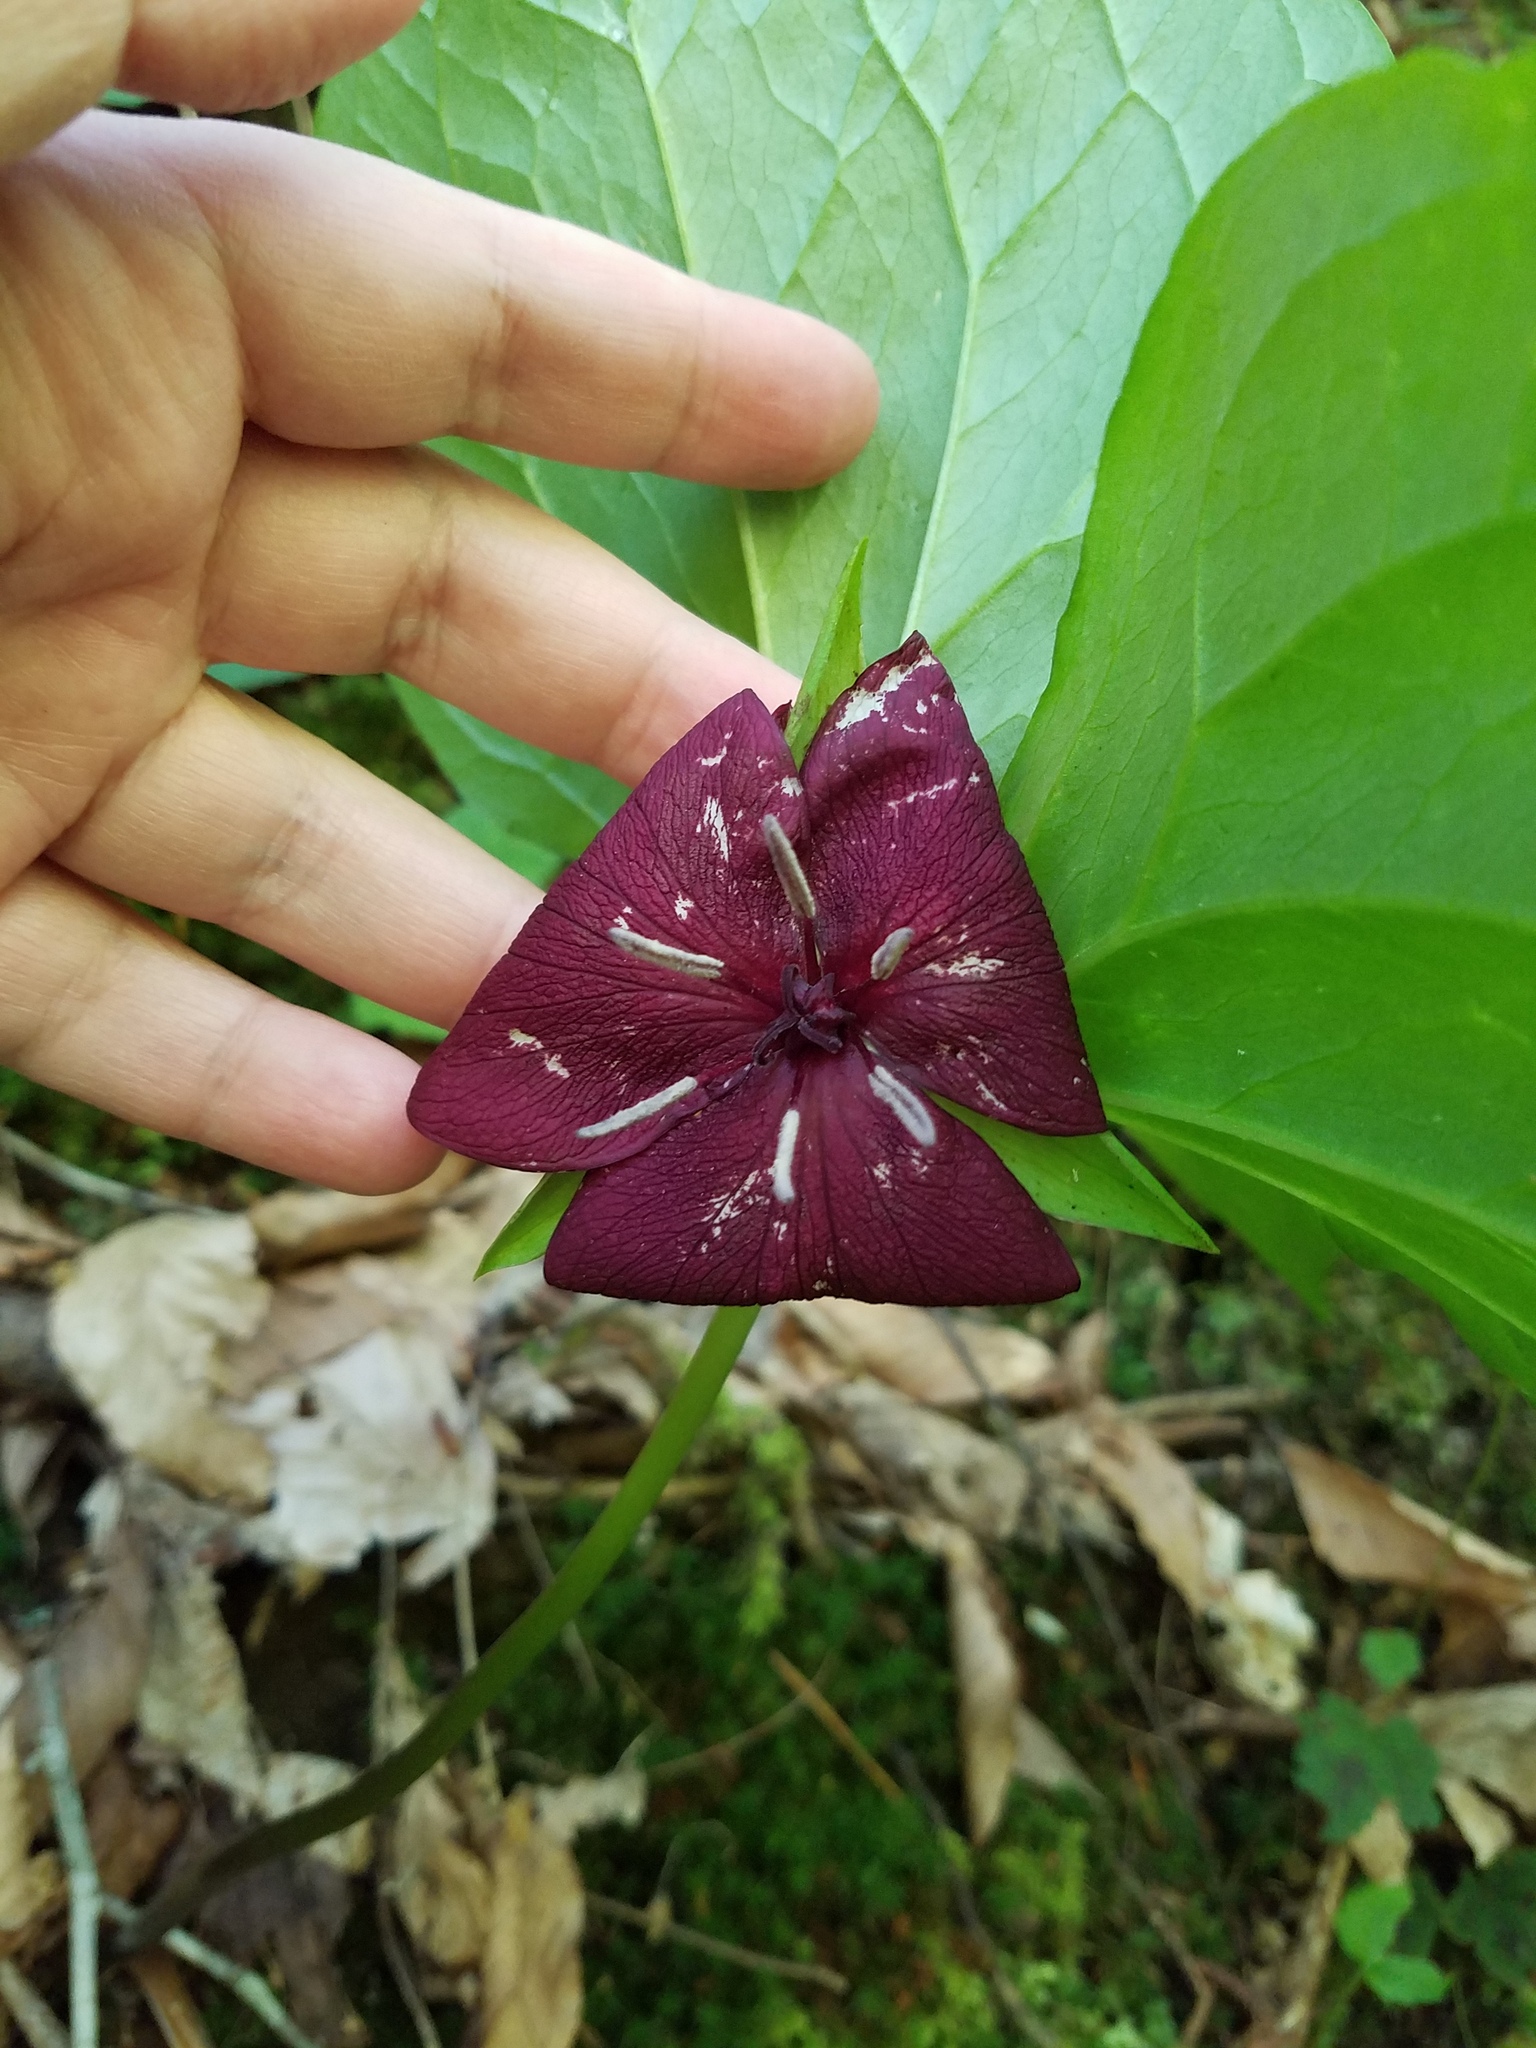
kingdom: Plantae
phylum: Tracheophyta
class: Liliopsida
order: Liliales
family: Melanthiaceae
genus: Trillium
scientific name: Trillium vaseyi
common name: Sweet trillium
